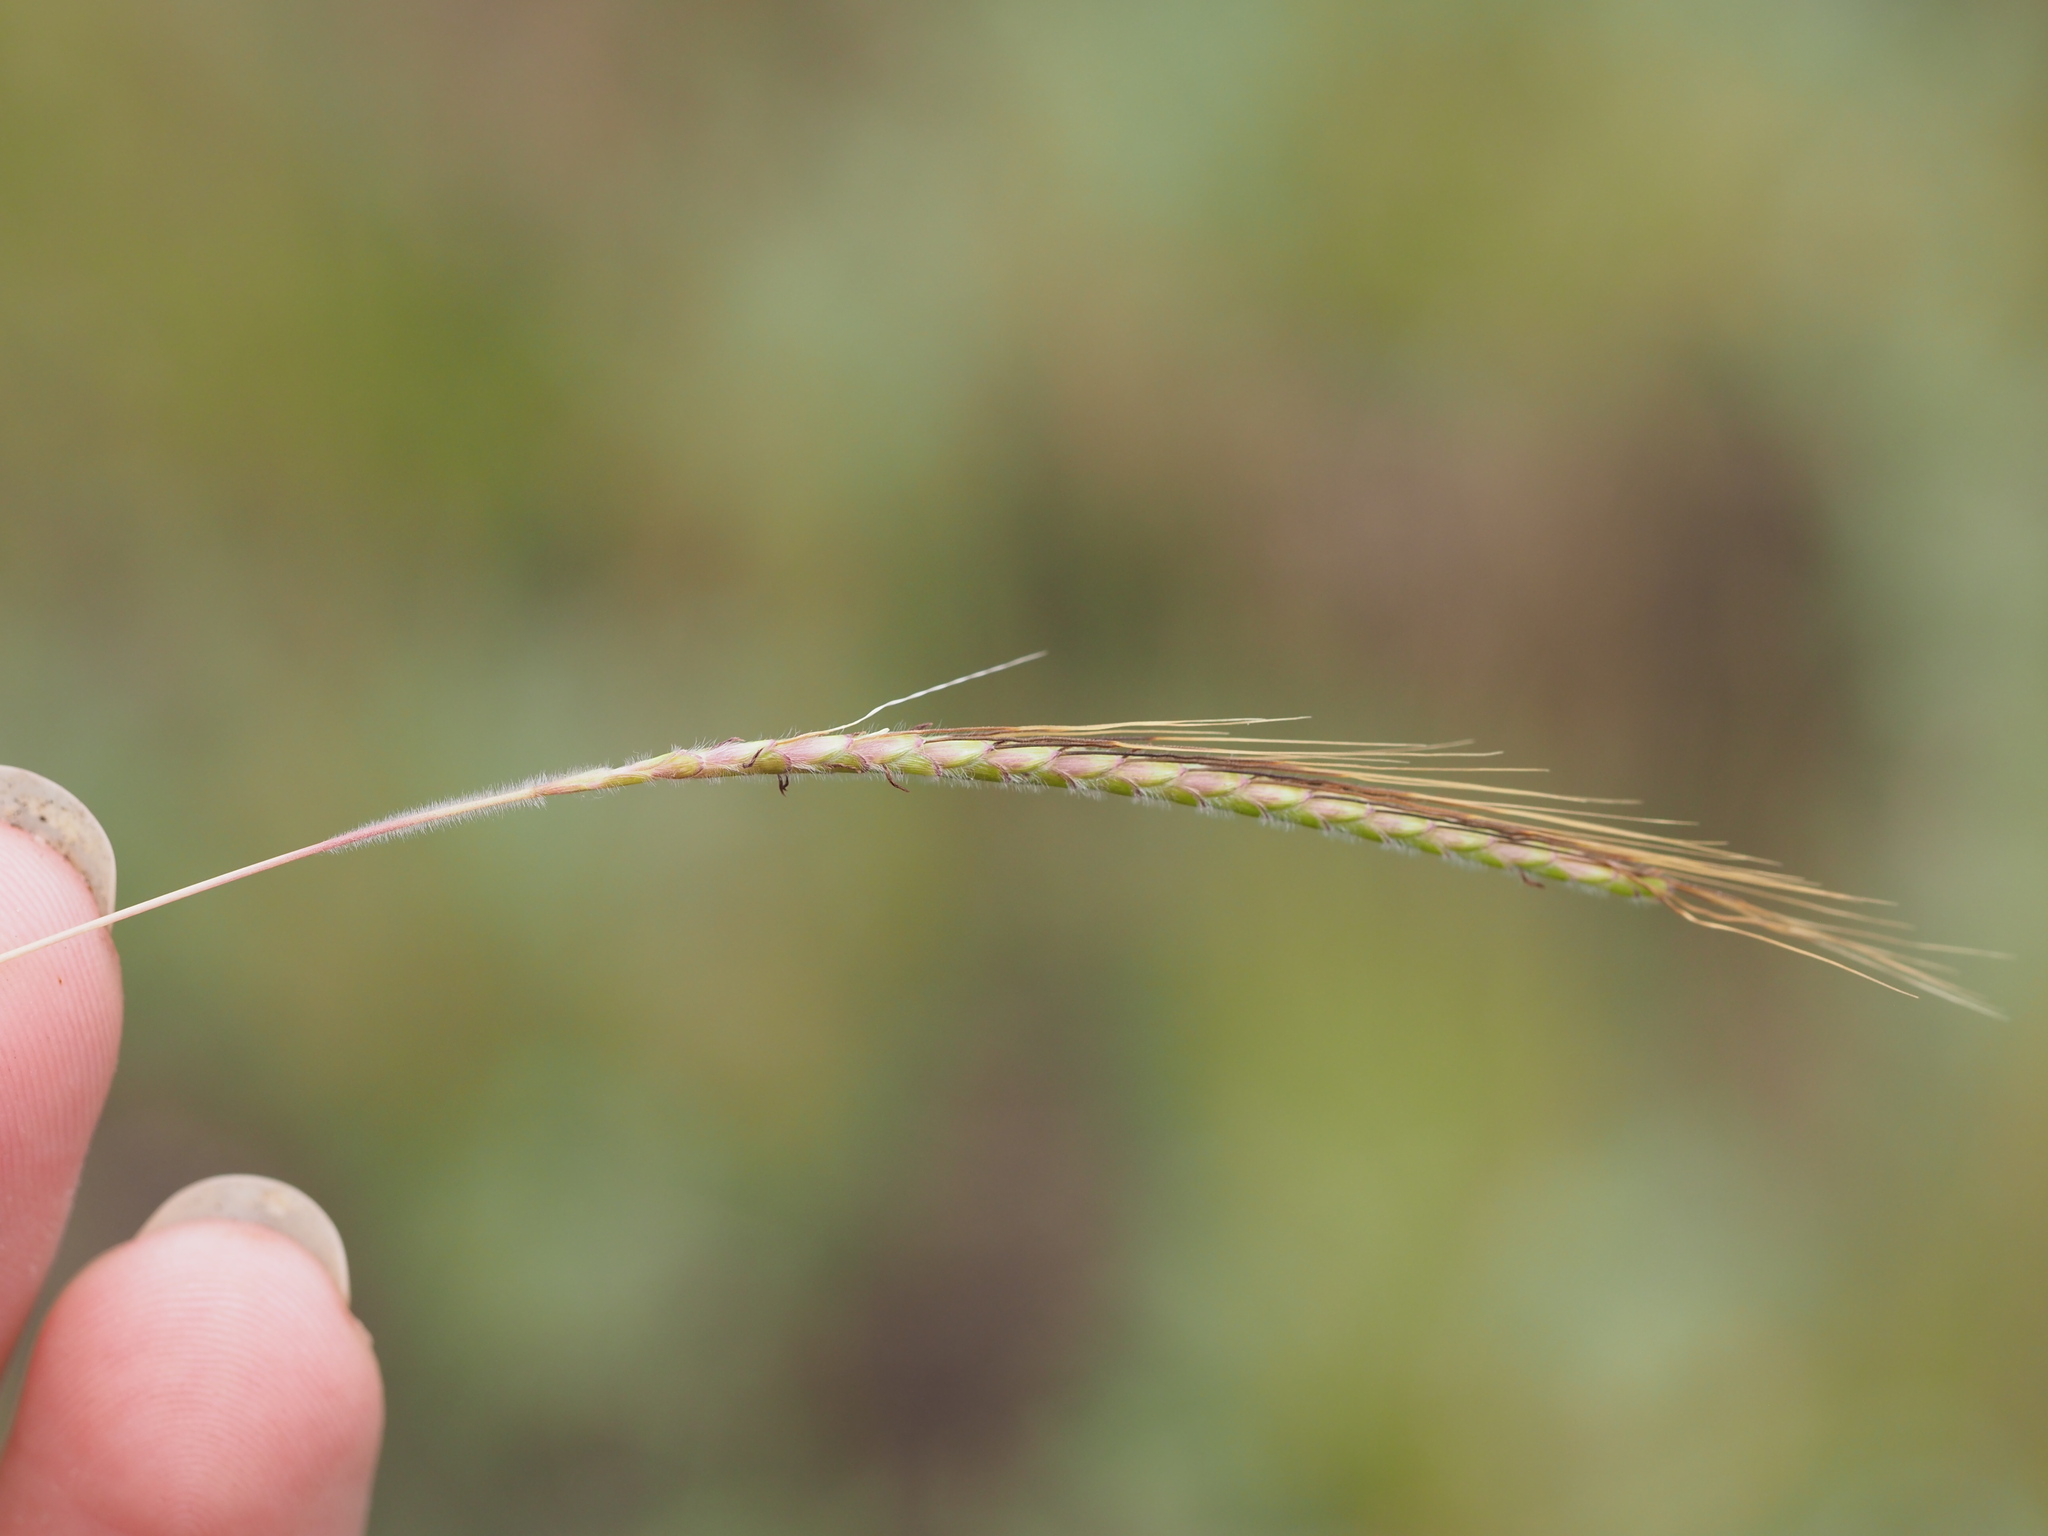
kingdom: Plantae
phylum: Tracheophyta
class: Liliopsida
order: Poales
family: Poaceae
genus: Dichanthium
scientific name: Dichanthium aristatum
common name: Angleton bluestem
